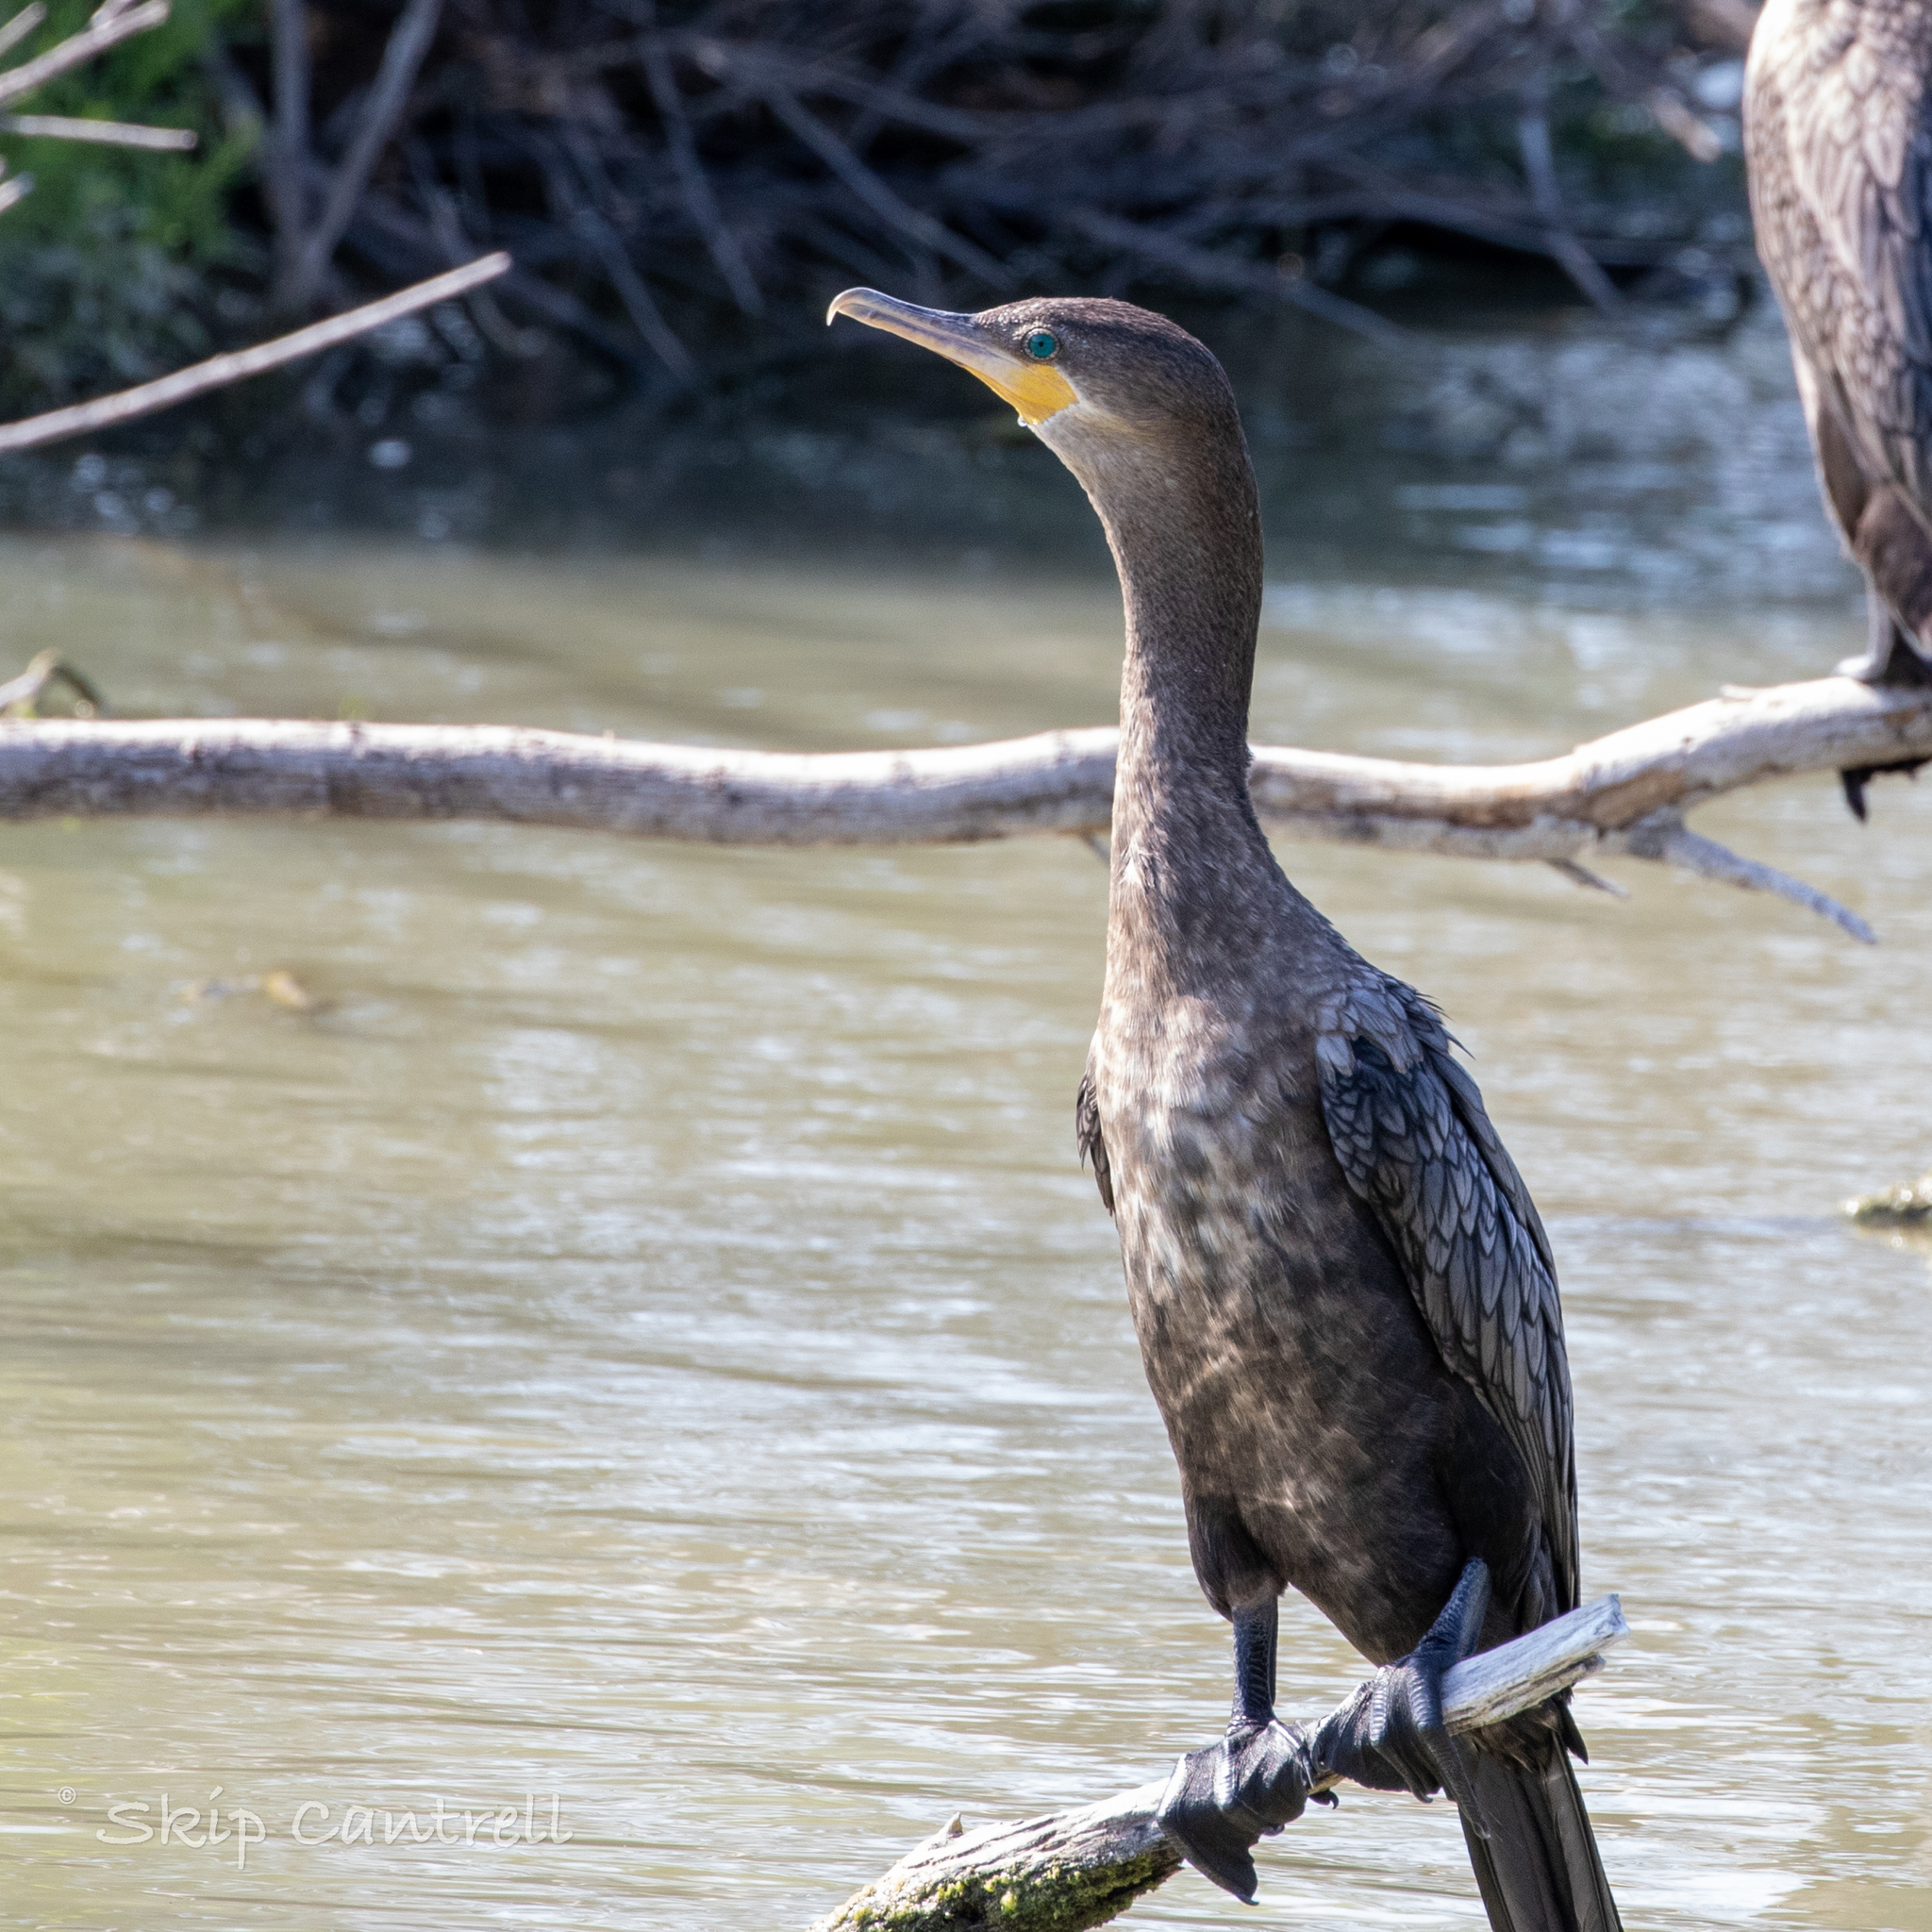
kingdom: Animalia
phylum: Chordata
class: Aves
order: Suliformes
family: Phalacrocoracidae
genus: Phalacrocorax
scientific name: Phalacrocorax brasilianus
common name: Neotropic cormorant
